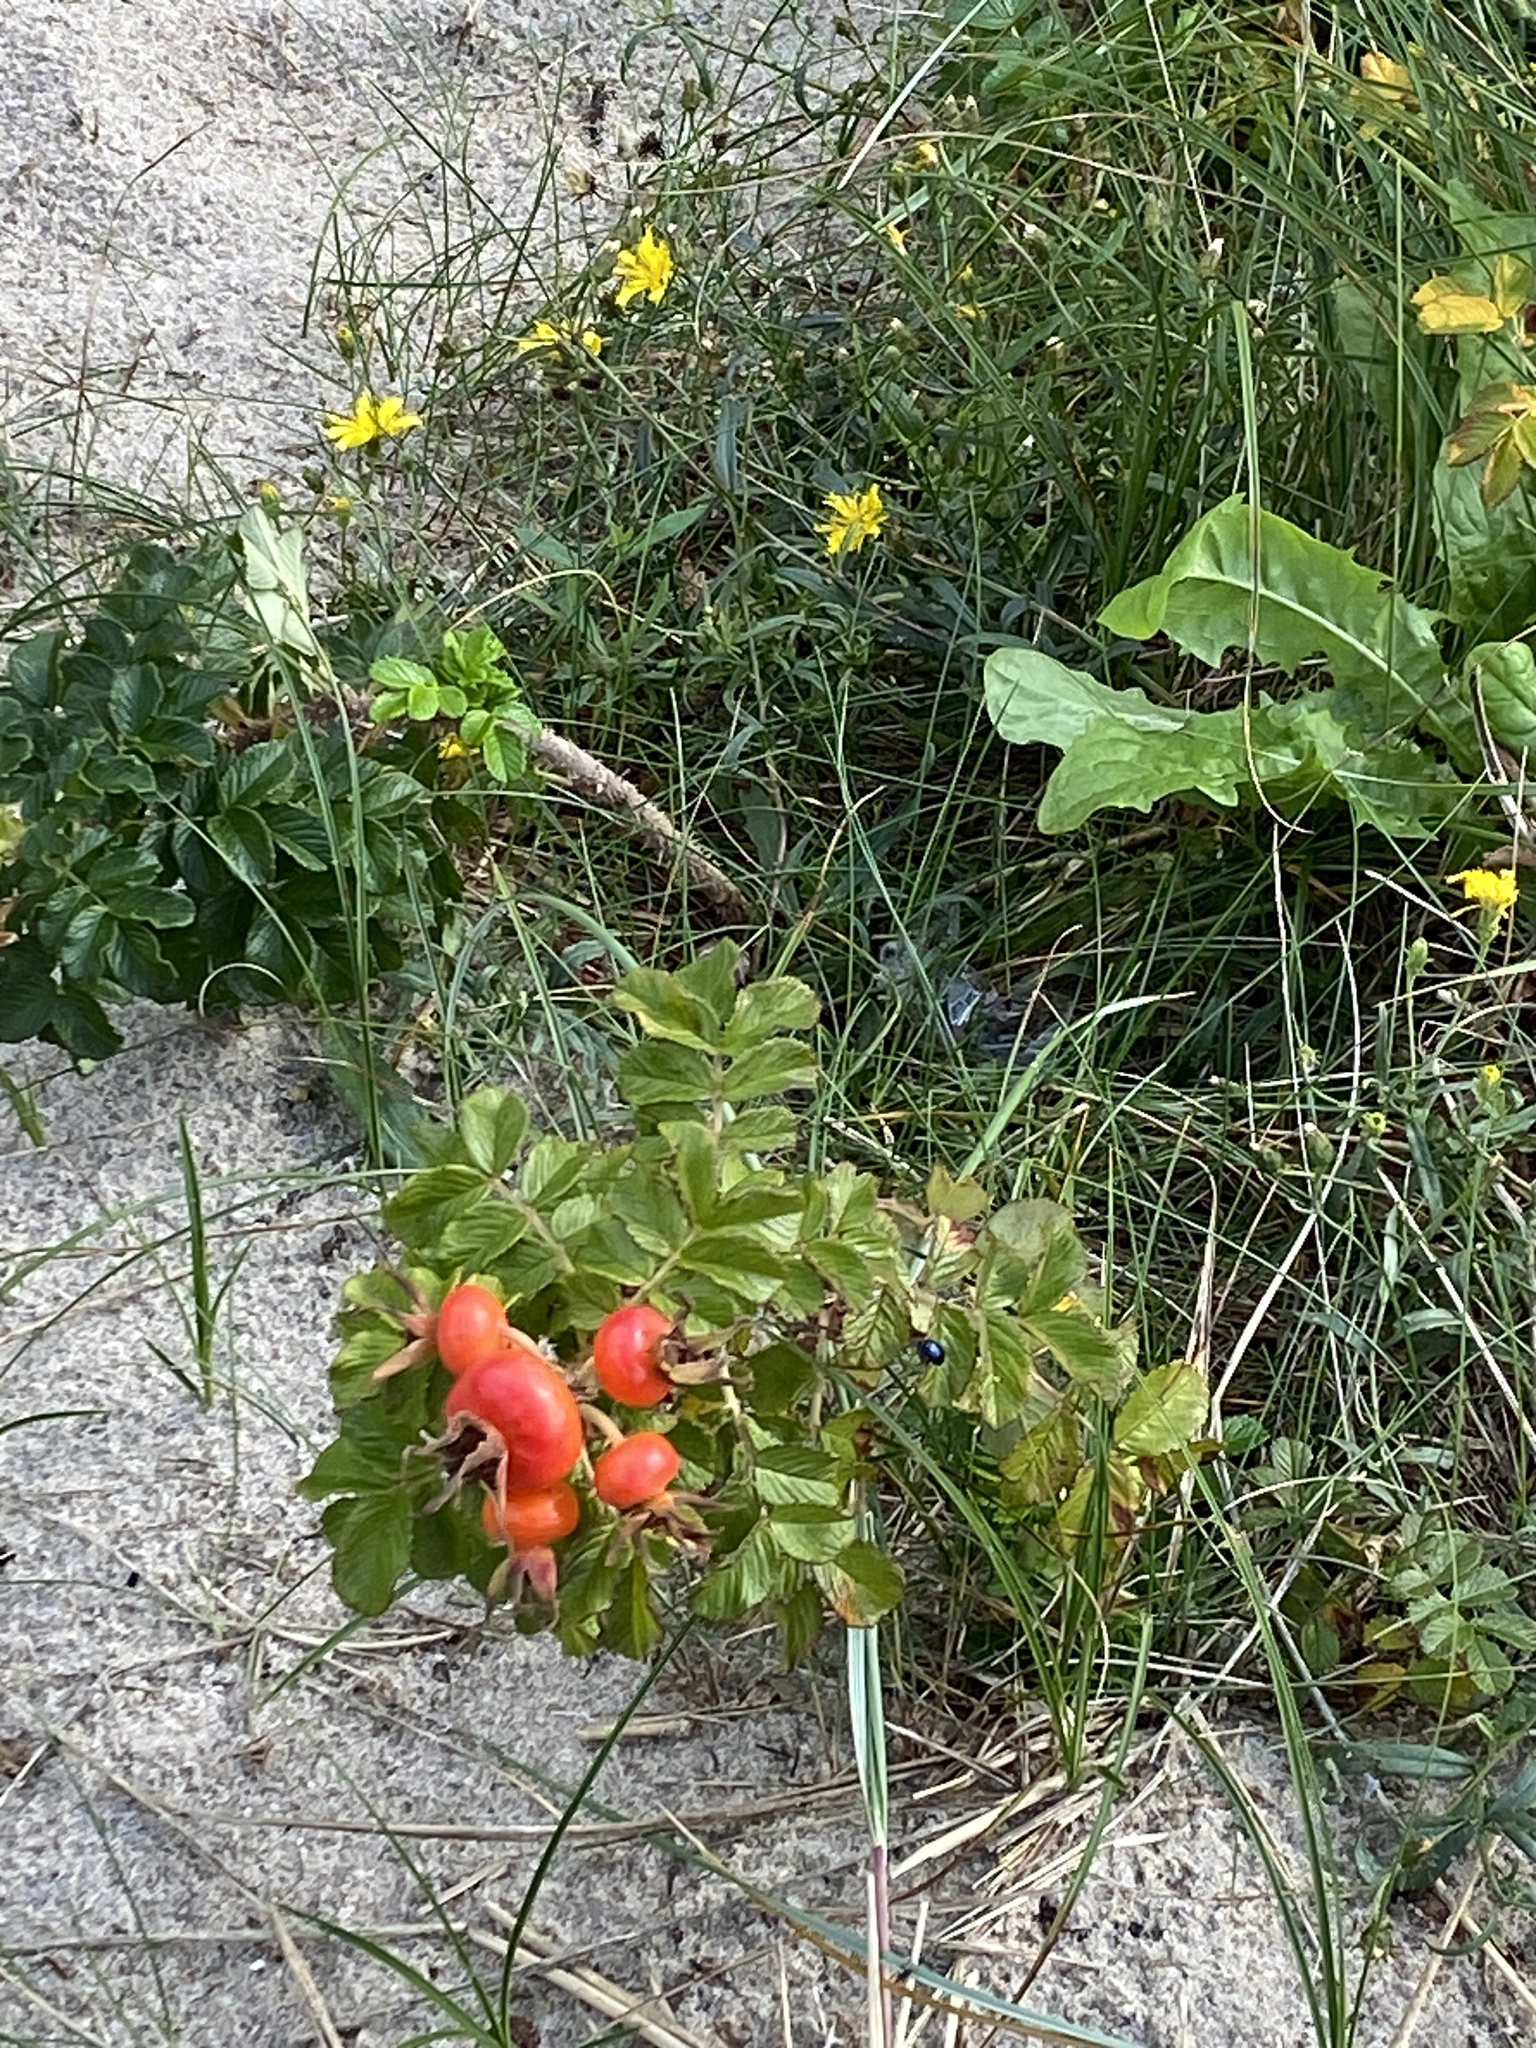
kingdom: Plantae
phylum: Tracheophyta
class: Magnoliopsida
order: Rosales
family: Rosaceae
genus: Rosa
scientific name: Rosa rugosa
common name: Japanese rose
